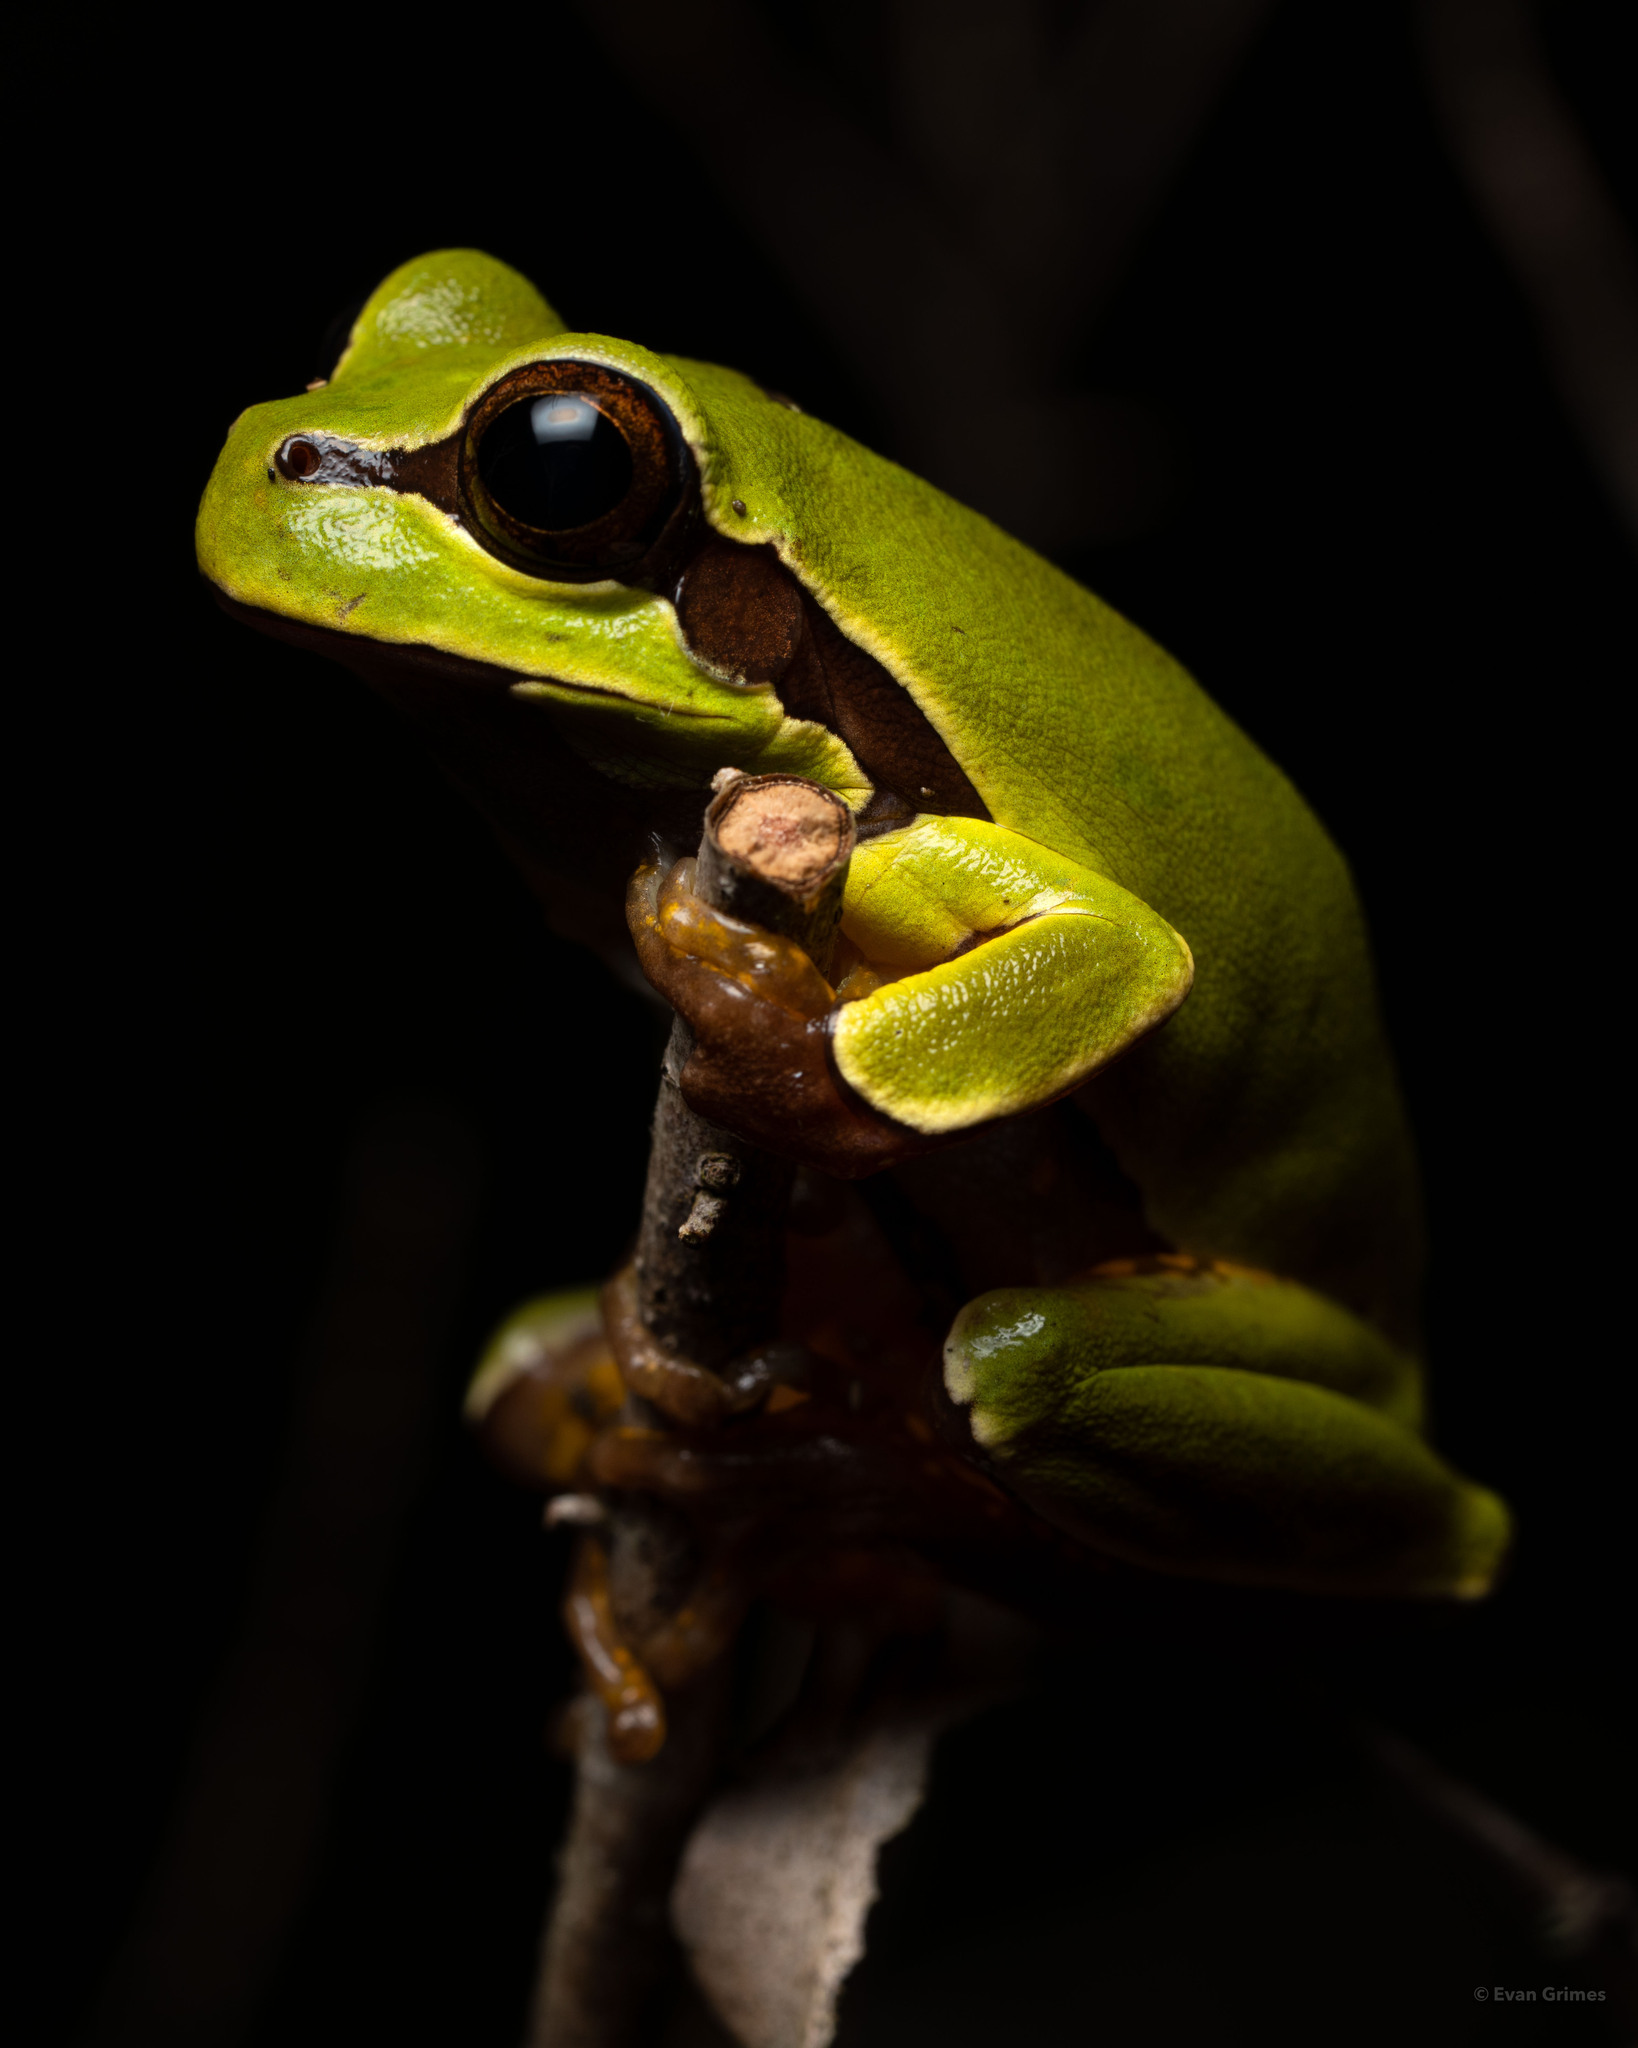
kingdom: Animalia
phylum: Chordata
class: Amphibia
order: Anura
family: Hylidae
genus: Dryophytes
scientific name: Dryophytes andersonii
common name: Pine barrens treefrog
